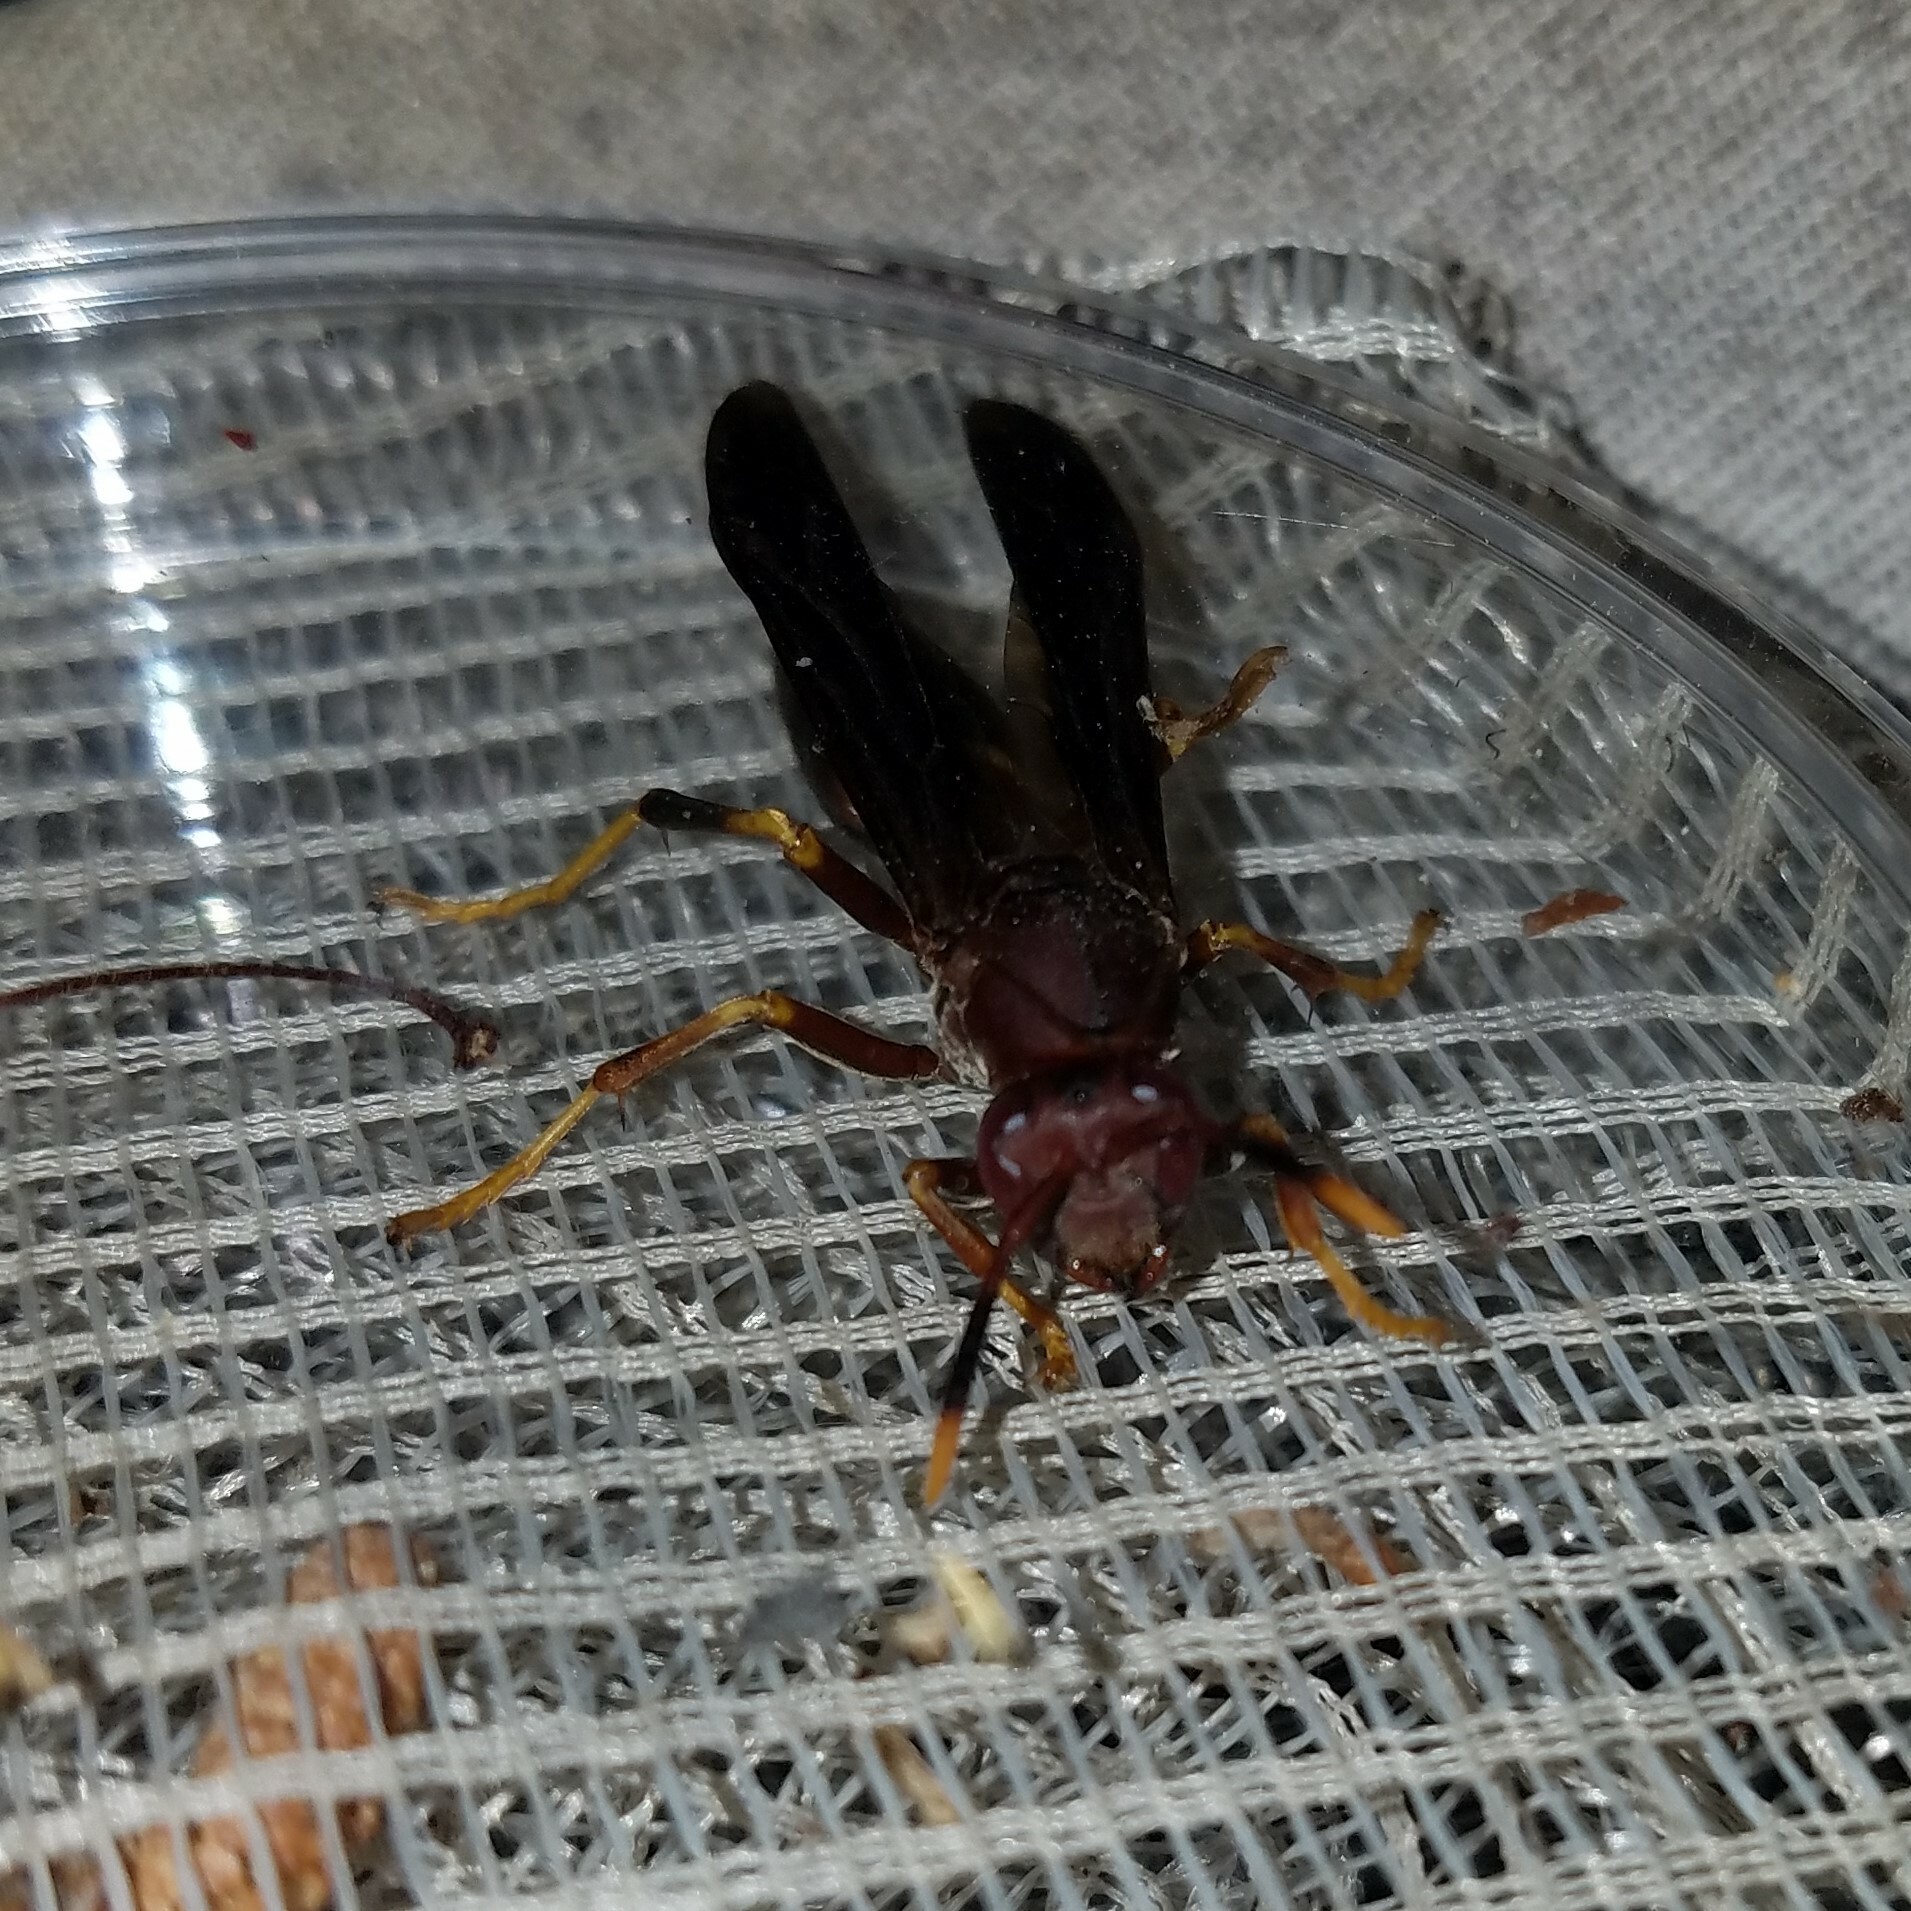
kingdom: Animalia
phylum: Arthropoda
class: Insecta
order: Hymenoptera
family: Eumenidae
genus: Polistes
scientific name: Polistes annularis
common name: Ringed paper wasp
